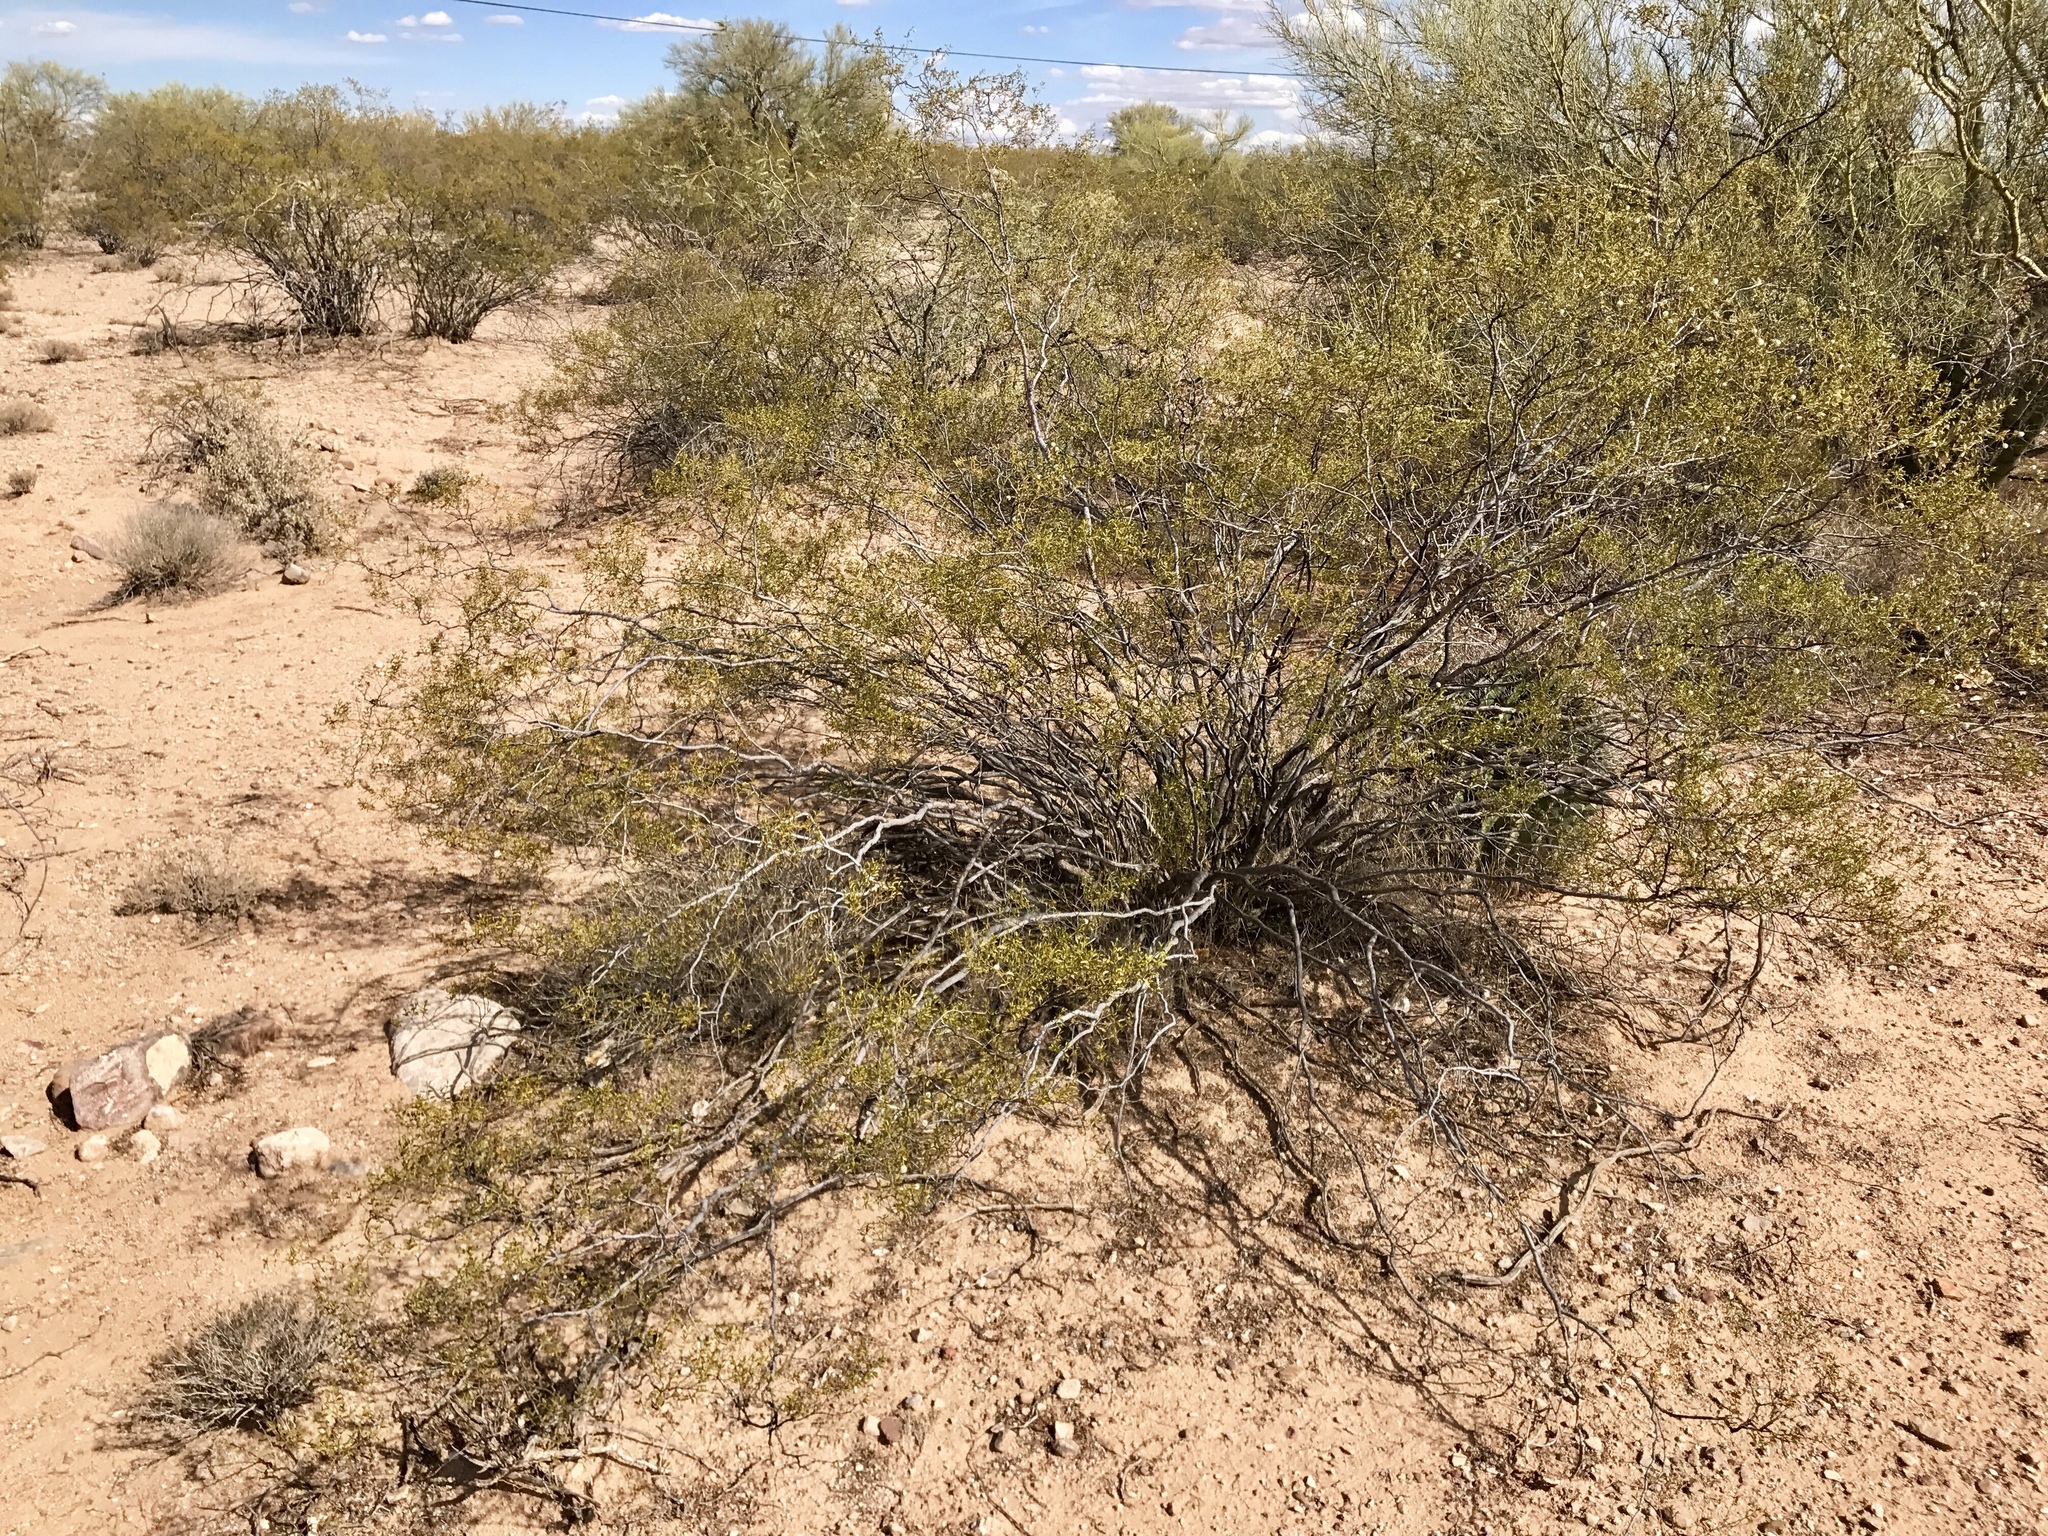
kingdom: Plantae
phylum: Tracheophyta
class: Magnoliopsida
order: Zygophyllales
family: Zygophyllaceae
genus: Larrea
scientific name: Larrea tridentata
